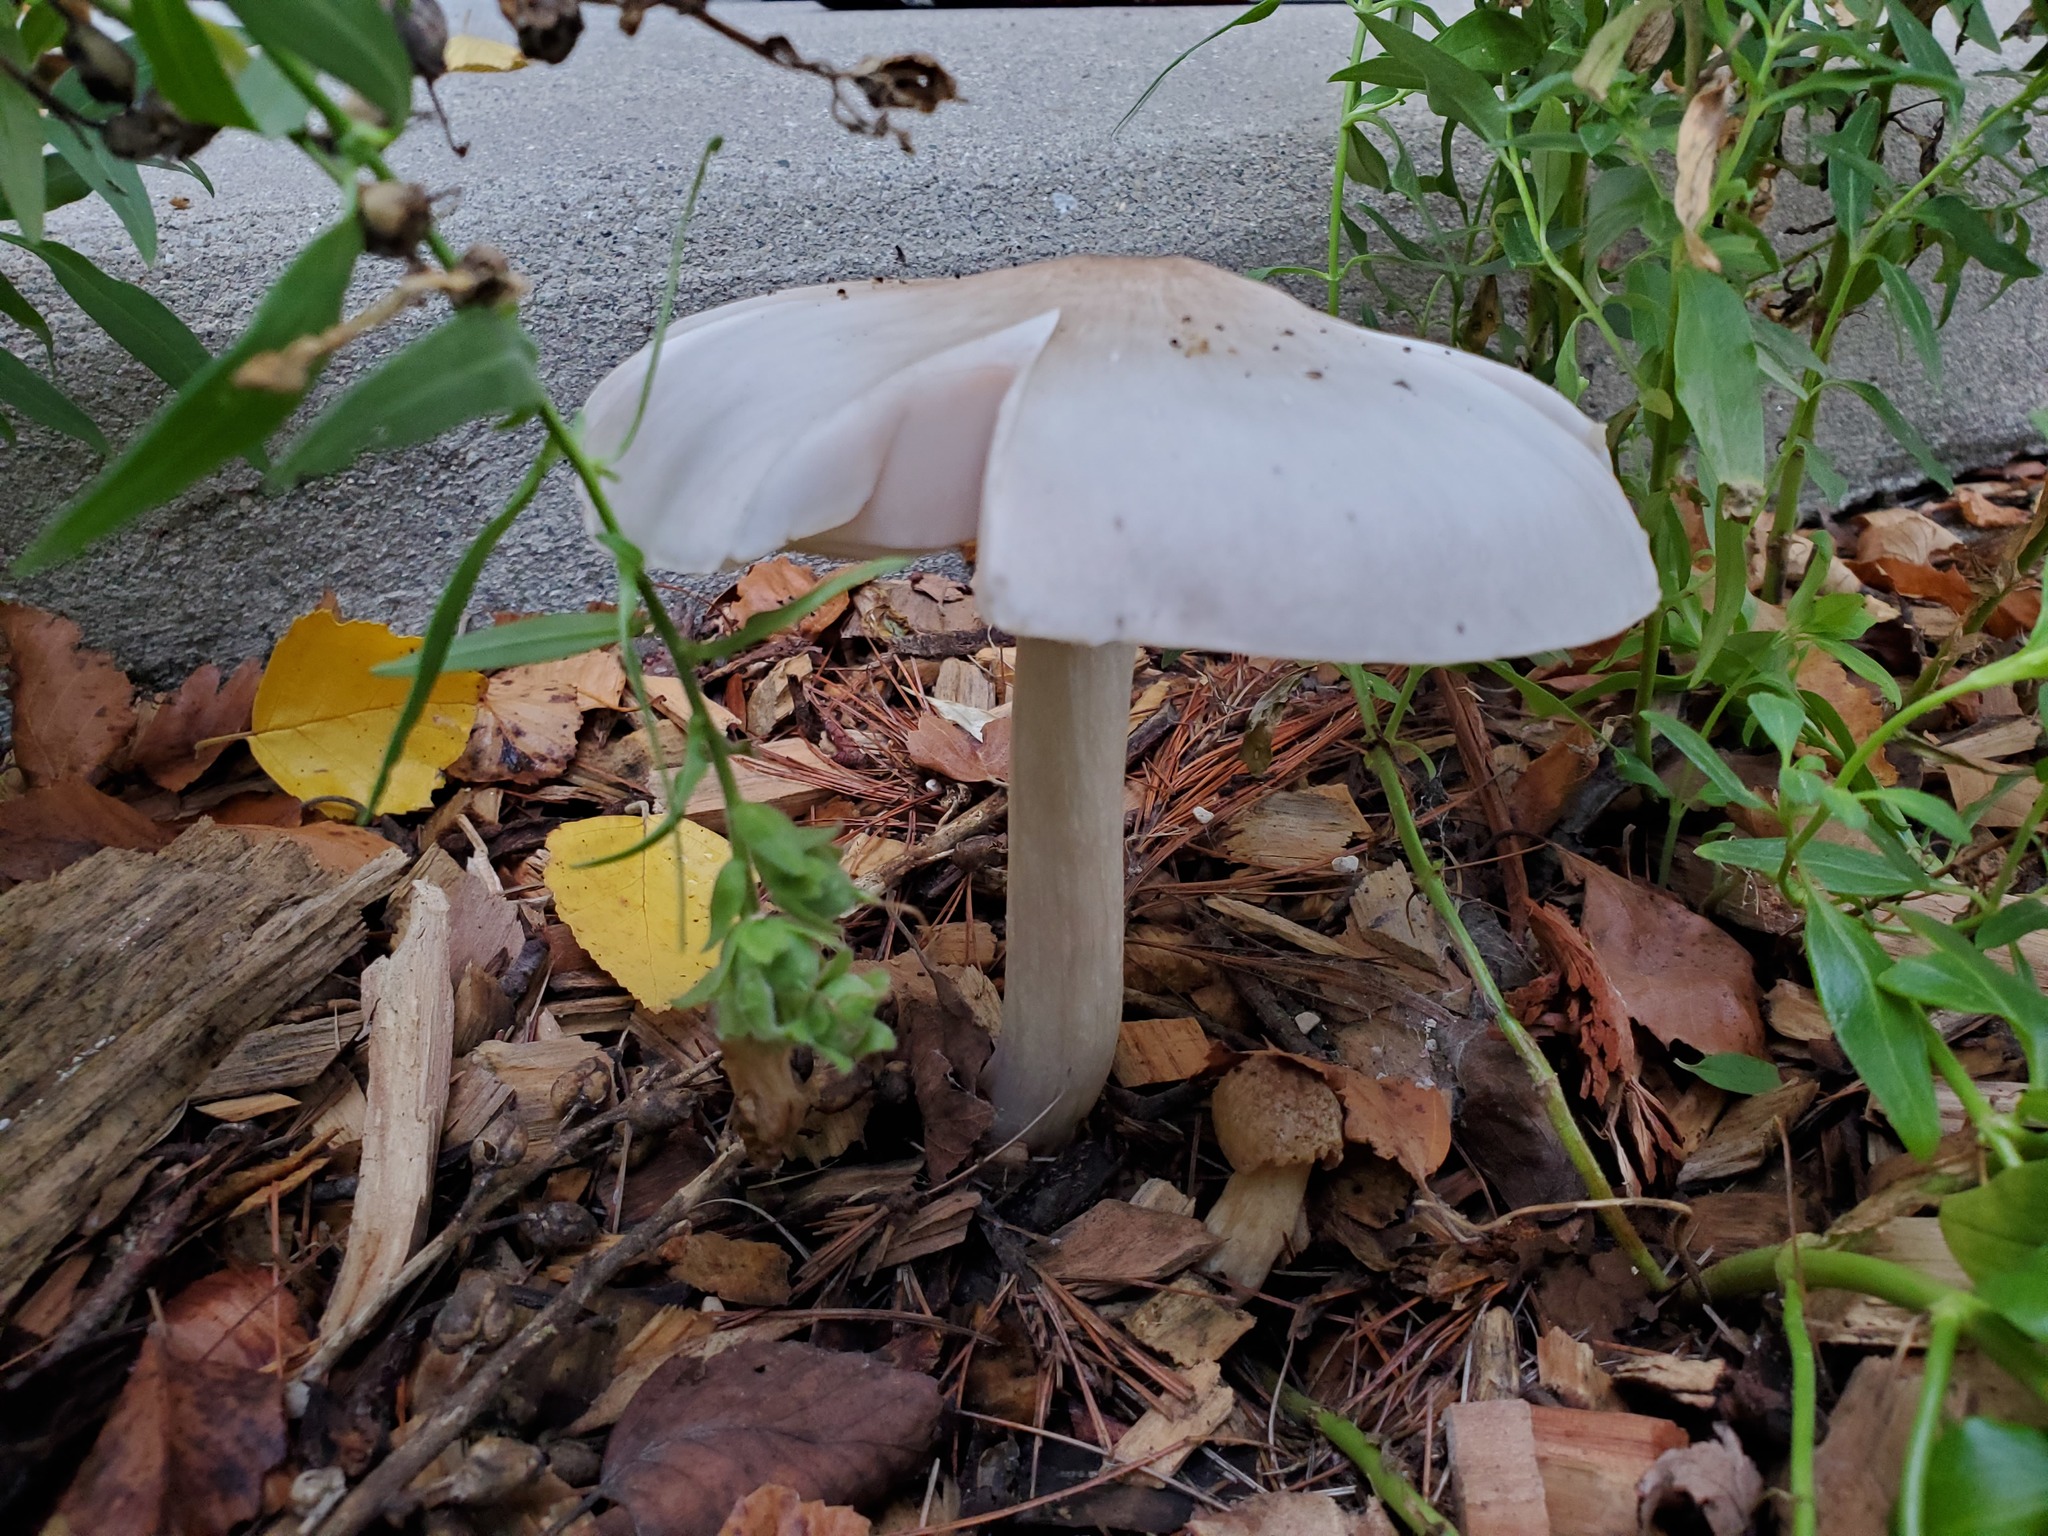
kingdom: Fungi
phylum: Basidiomycota
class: Agaricomycetes
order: Agaricales
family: Pluteaceae
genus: Pluteus
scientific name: Pluteus petasatus
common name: Scaly shield
